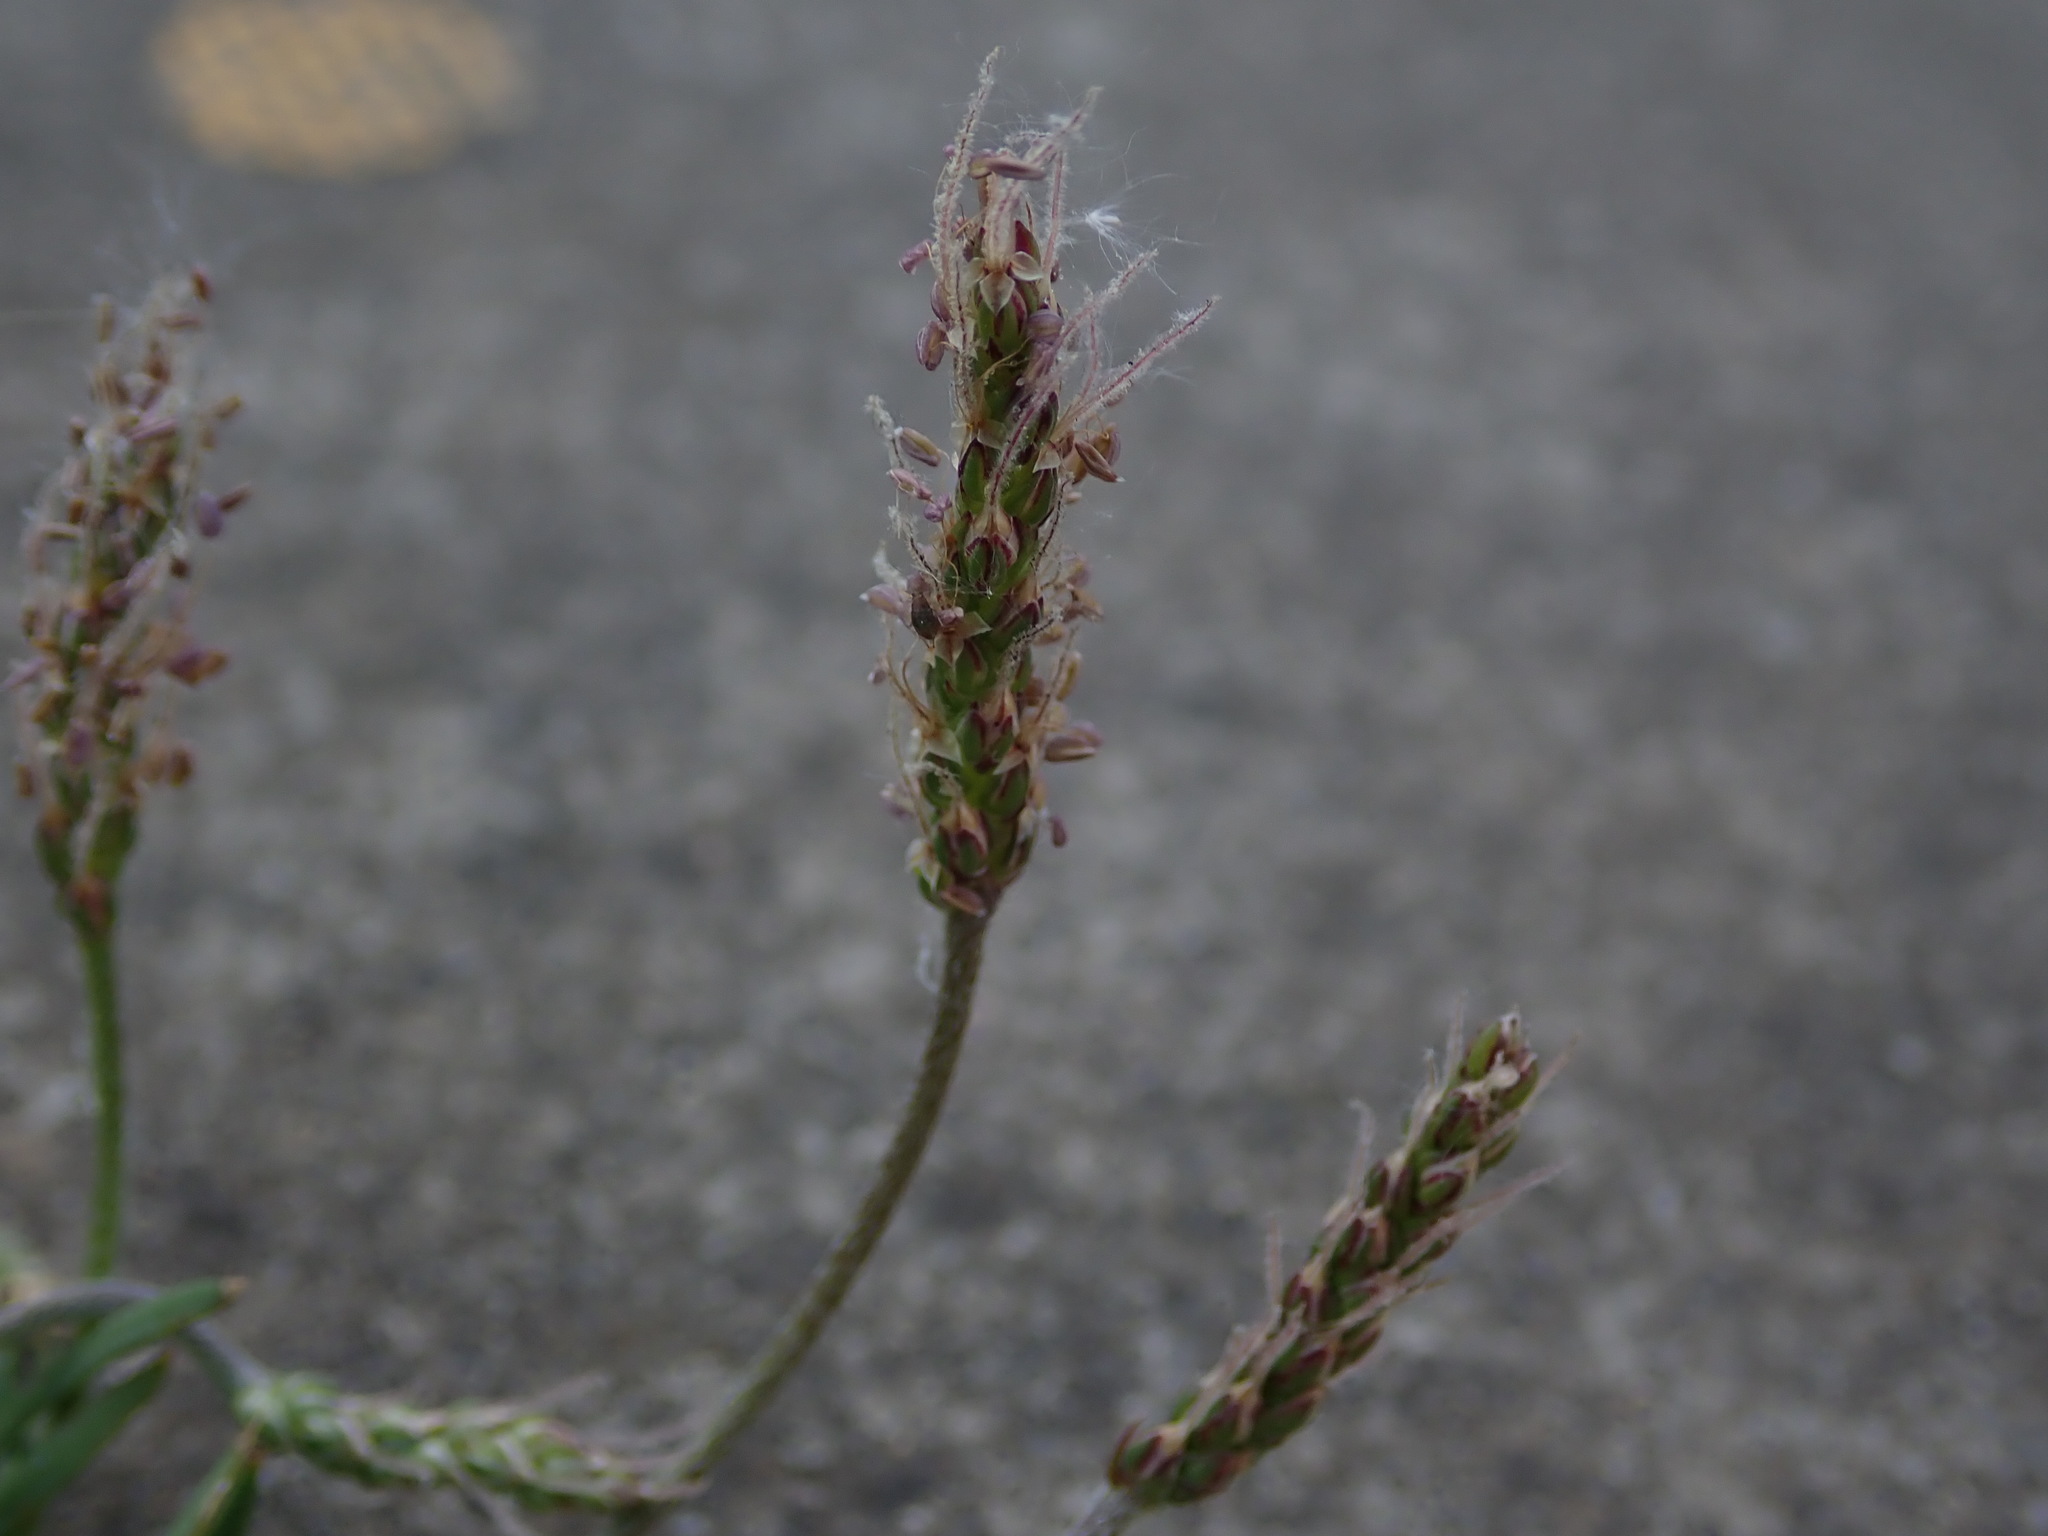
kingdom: Plantae
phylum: Tracheophyta
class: Magnoliopsida
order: Lamiales
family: Plantaginaceae
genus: Plantago
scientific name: Plantago coronopus
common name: Buck's-horn plantain
